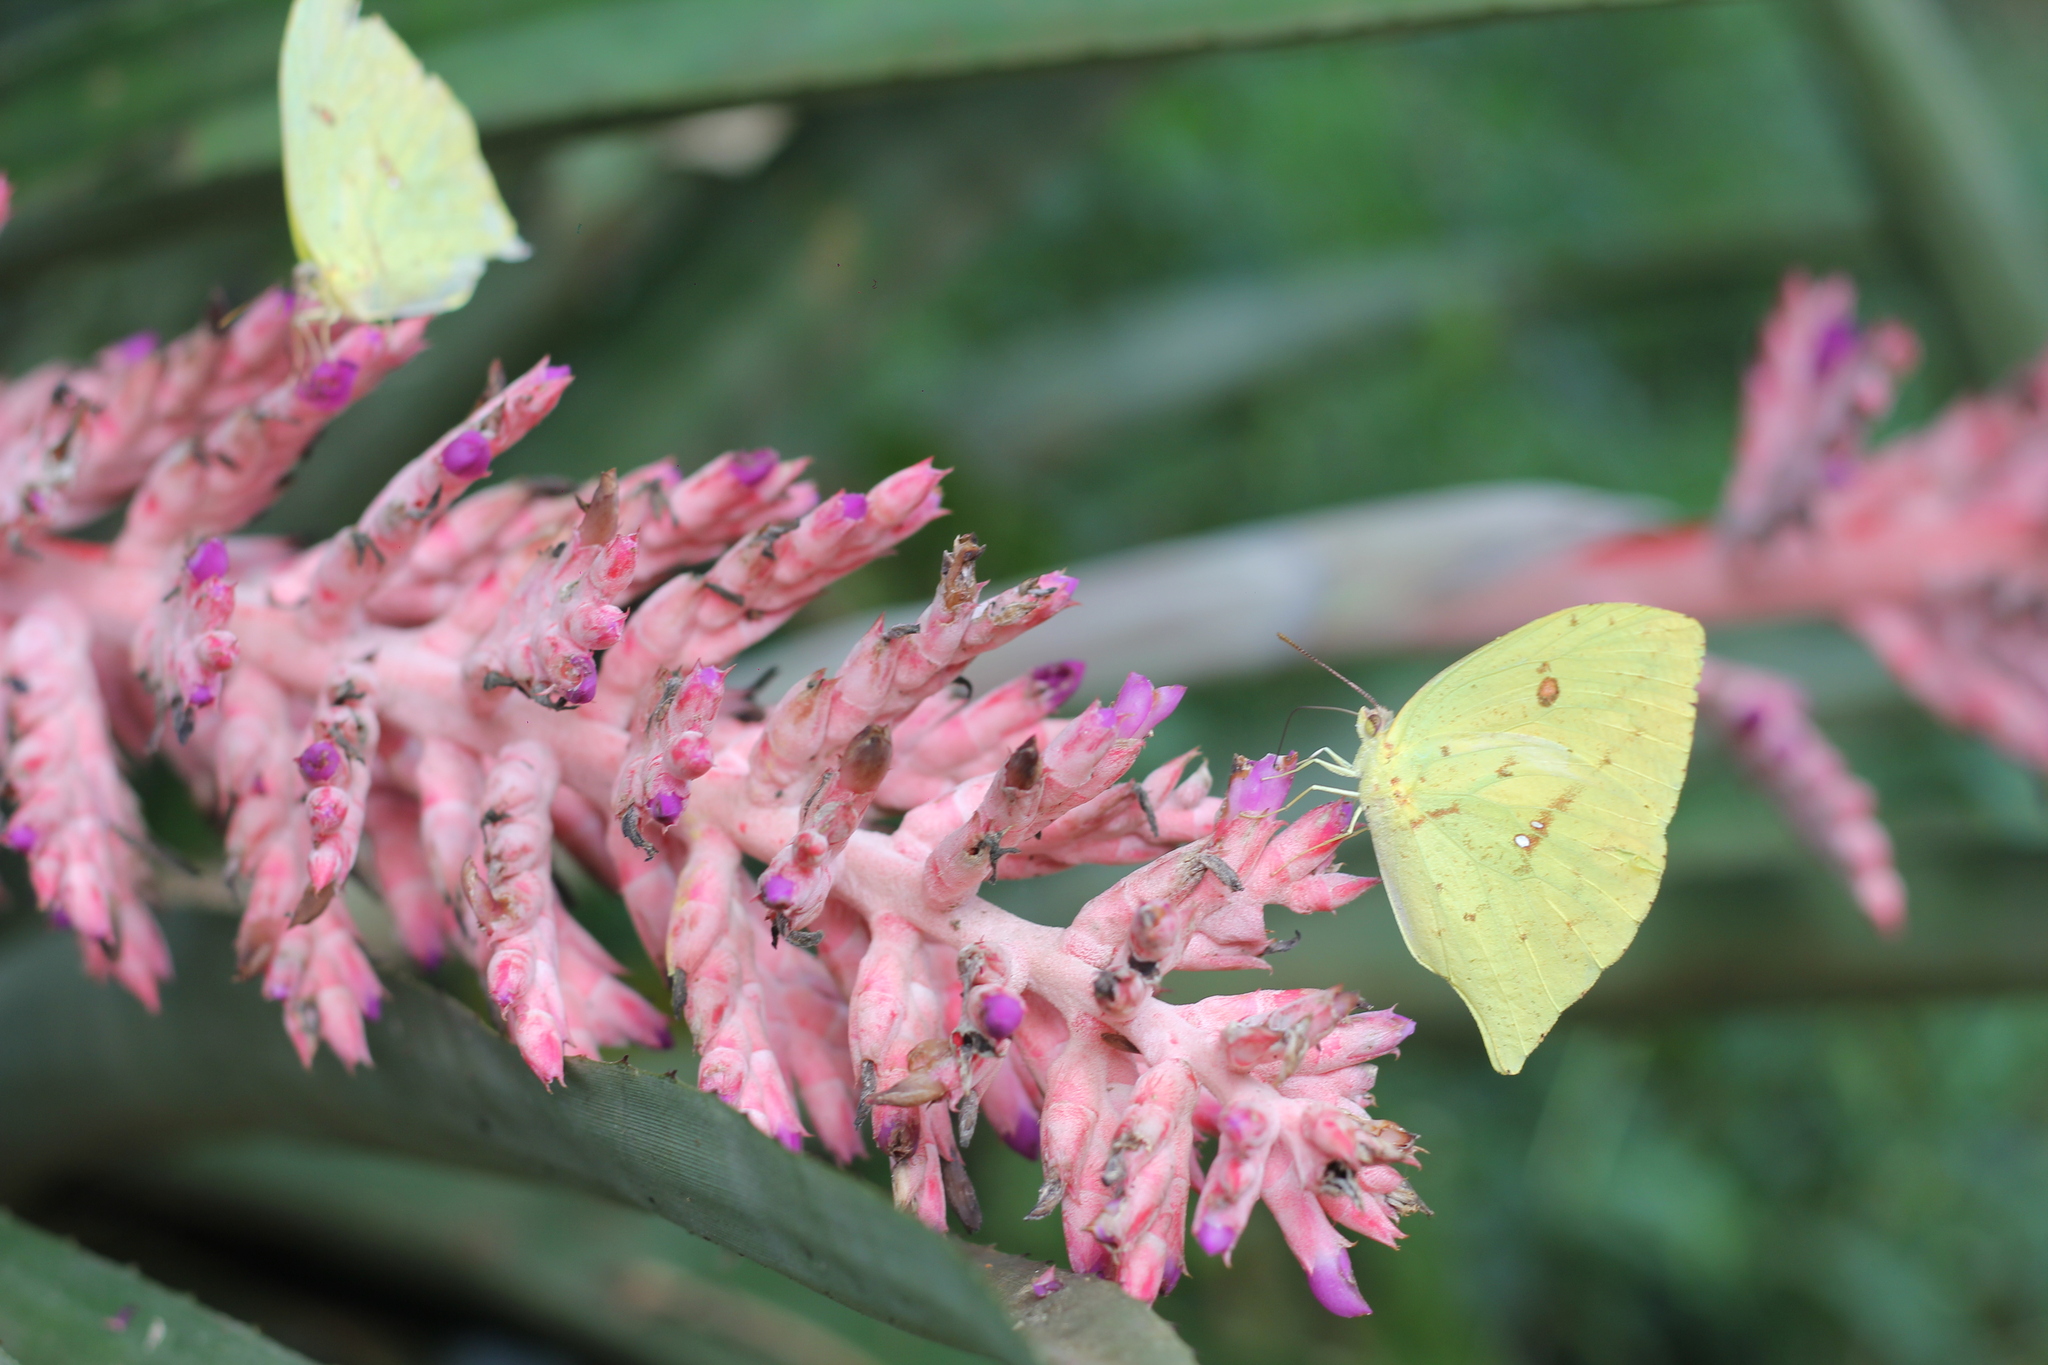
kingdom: Animalia
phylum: Arthropoda
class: Insecta
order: Lepidoptera
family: Pieridae
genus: Phoebis
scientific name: Phoebis neocypris
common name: Tailed sulphur
